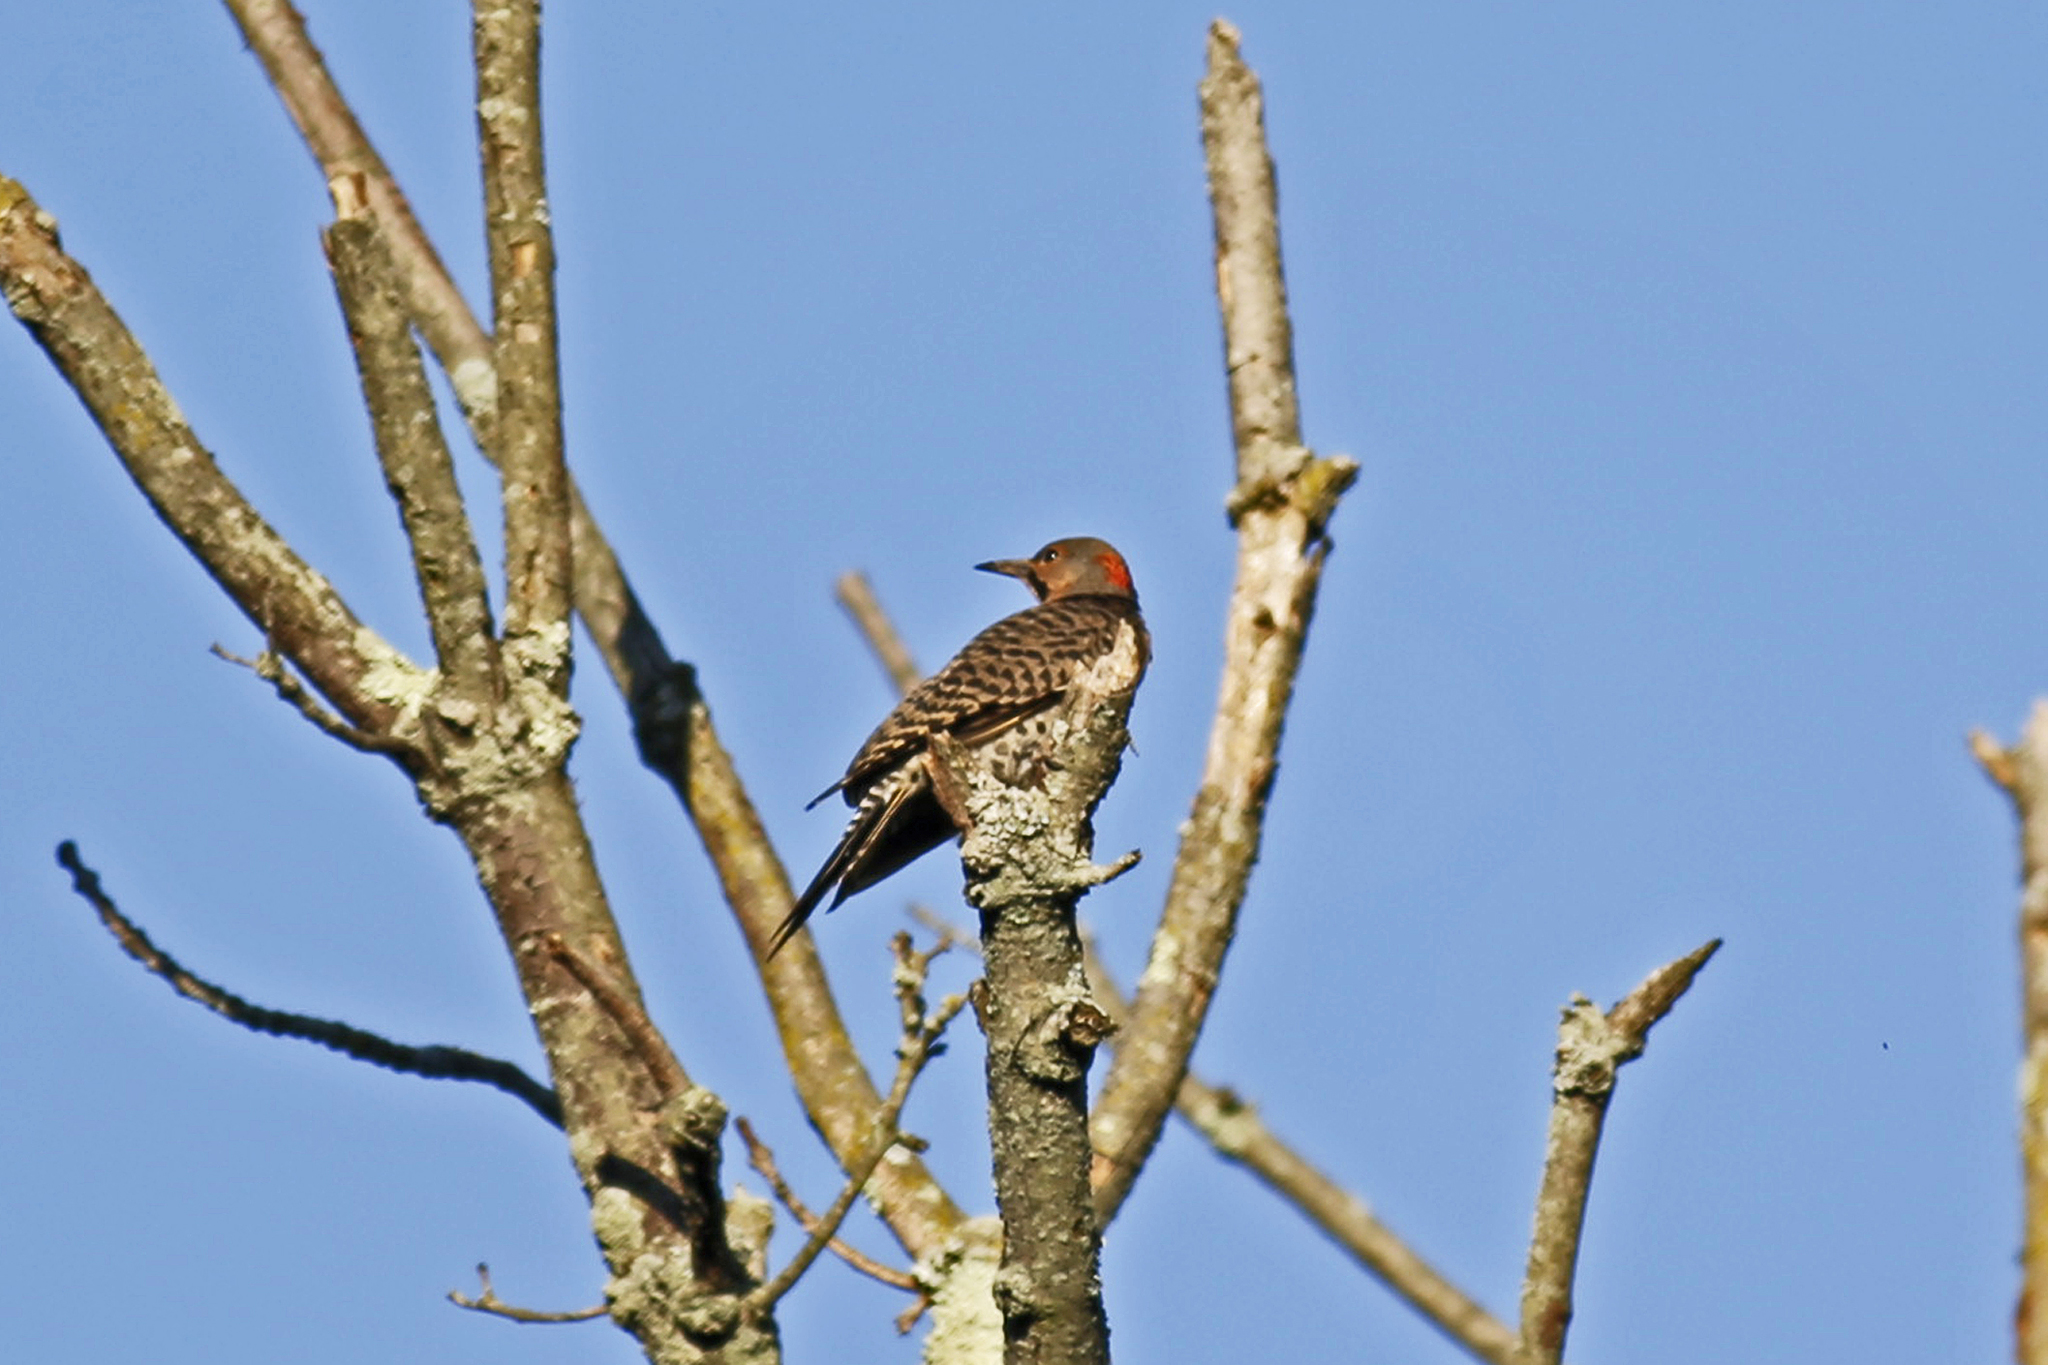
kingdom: Animalia
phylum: Chordata
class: Aves
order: Piciformes
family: Picidae
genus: Colaptes
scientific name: Colaptes auratus
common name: Northern flicker
